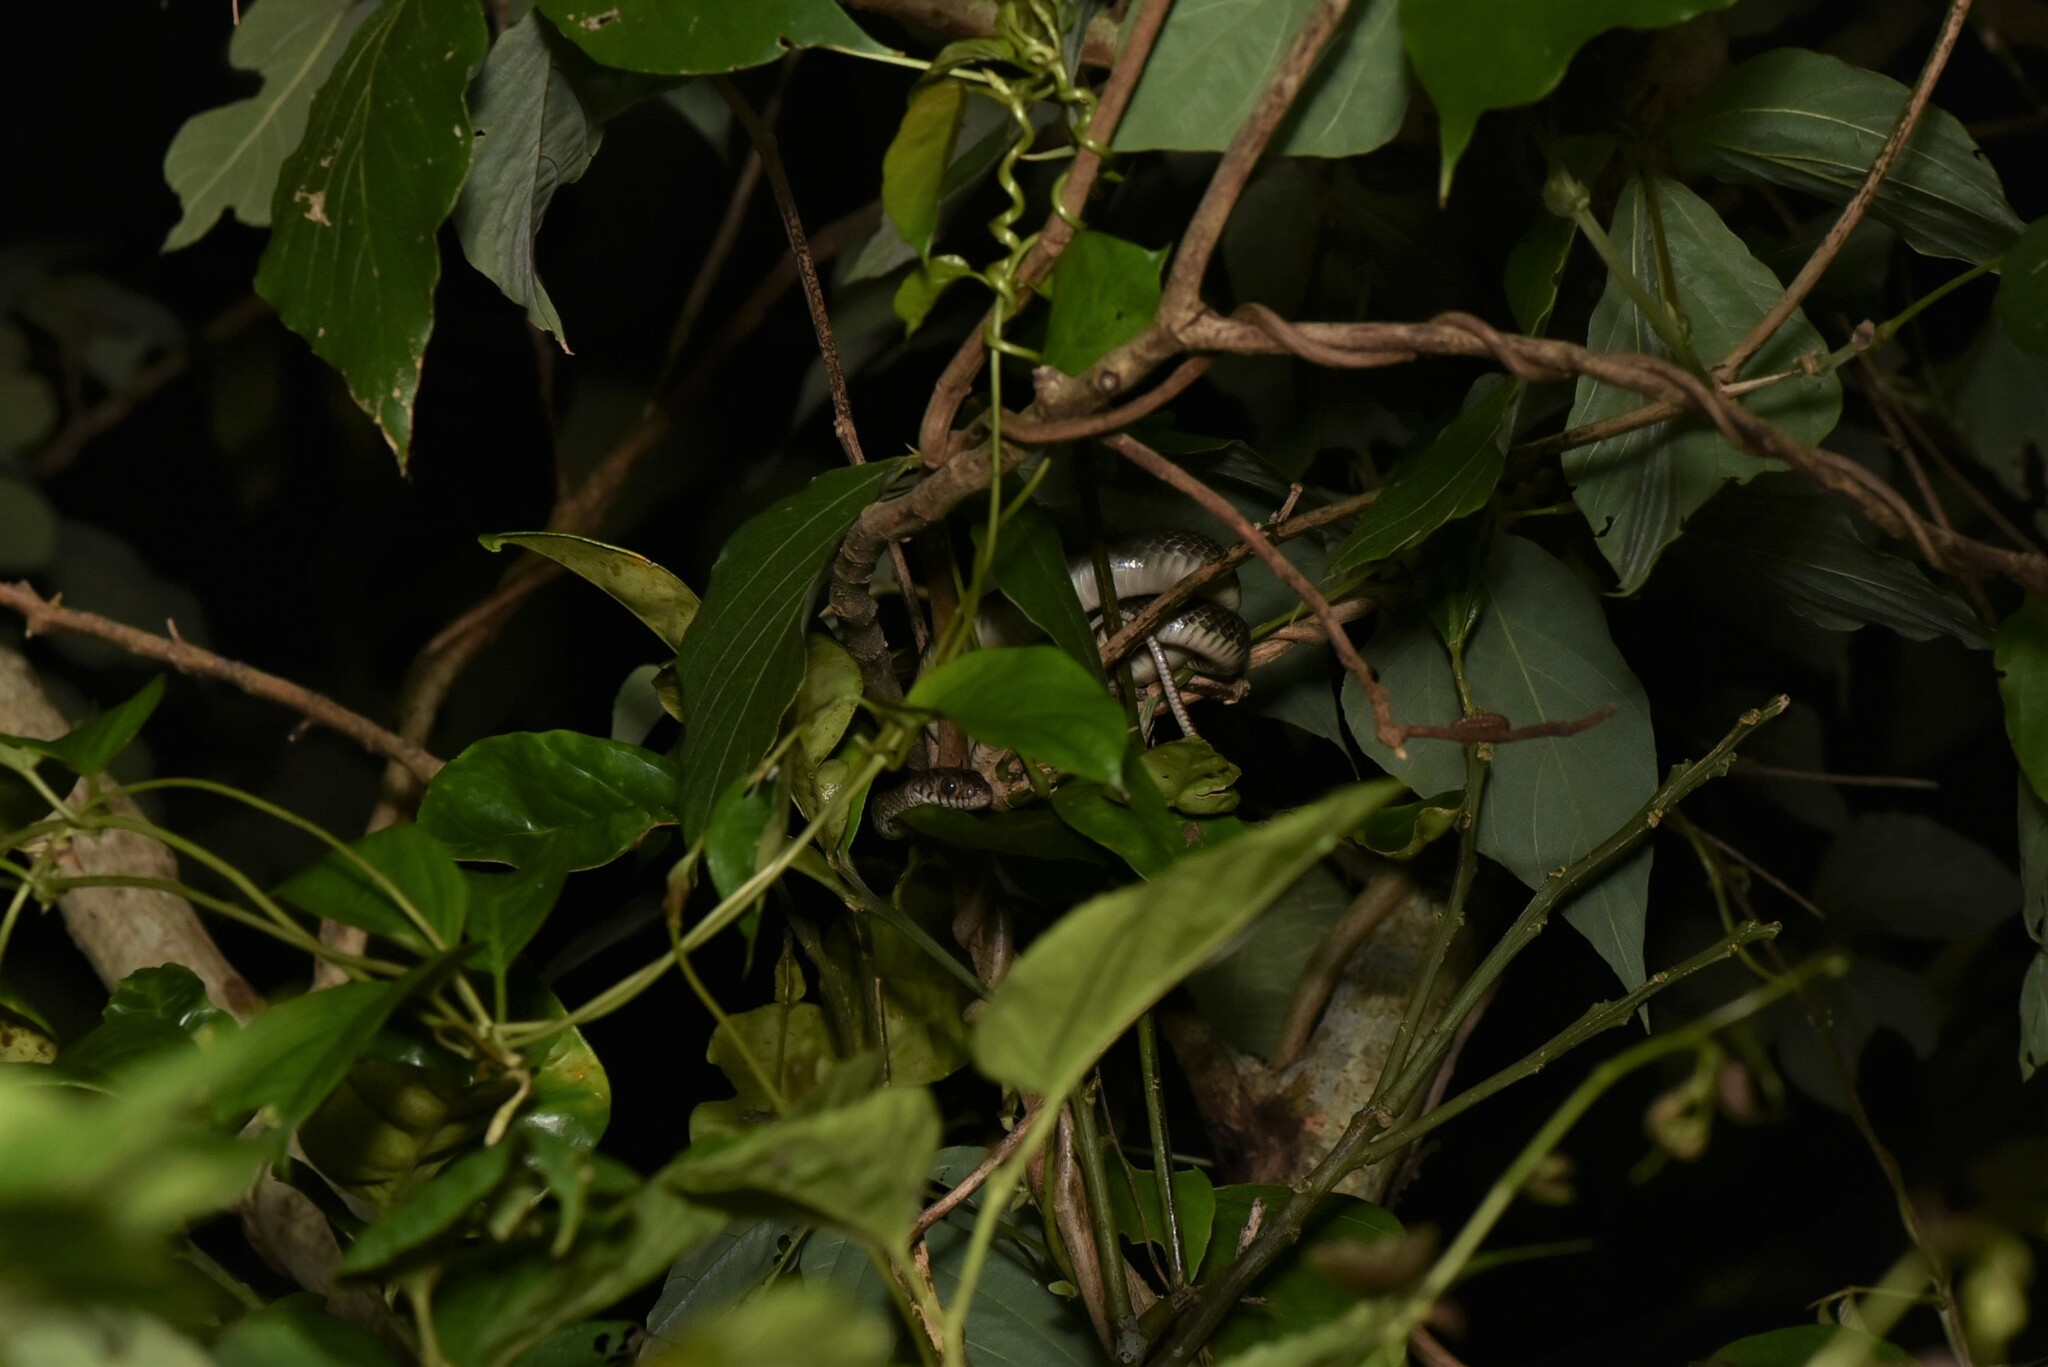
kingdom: Animalia
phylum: Chordata
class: Squamata
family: Colubridae
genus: Ptyas
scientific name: Ptyas mucosa
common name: Oriental ratsnake
